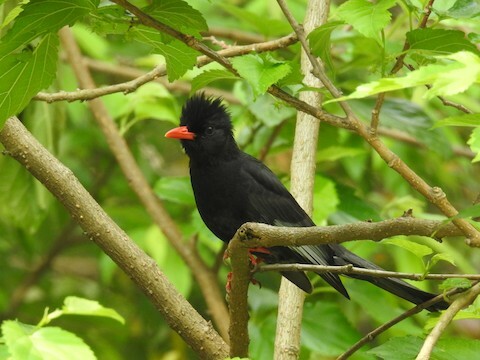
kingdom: Animalia
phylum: Chordata
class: Aves
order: Passeriformes
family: Pycnonotidae
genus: Hypsipetes
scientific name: Hypsipetes leucocephalus
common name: Black bulbul
